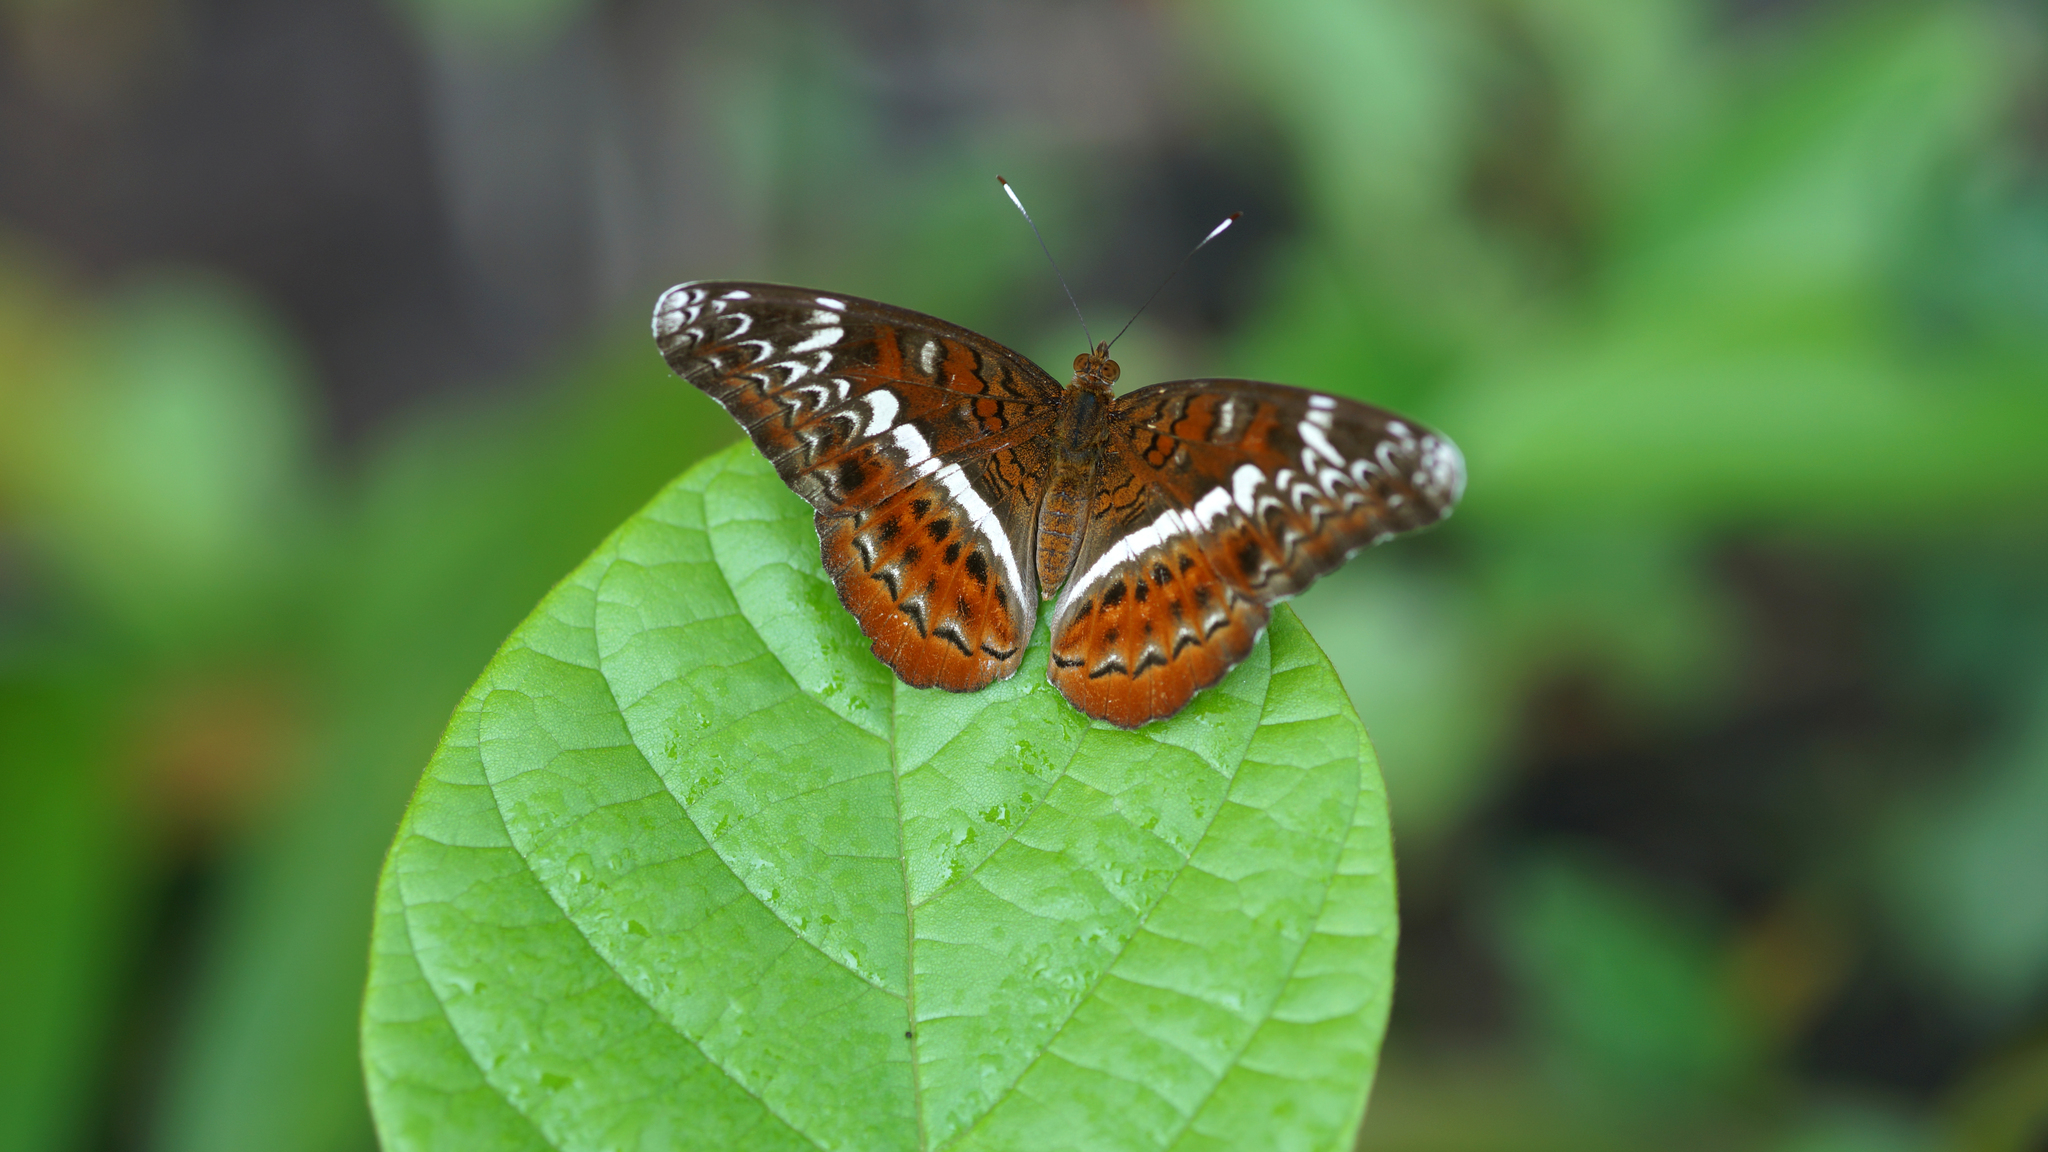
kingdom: Animalia
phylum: Arthropoda
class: Insecta
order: Lepidoptera
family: Nymphalidae
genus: Lebadea
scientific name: Lebadea martha
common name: Knight
